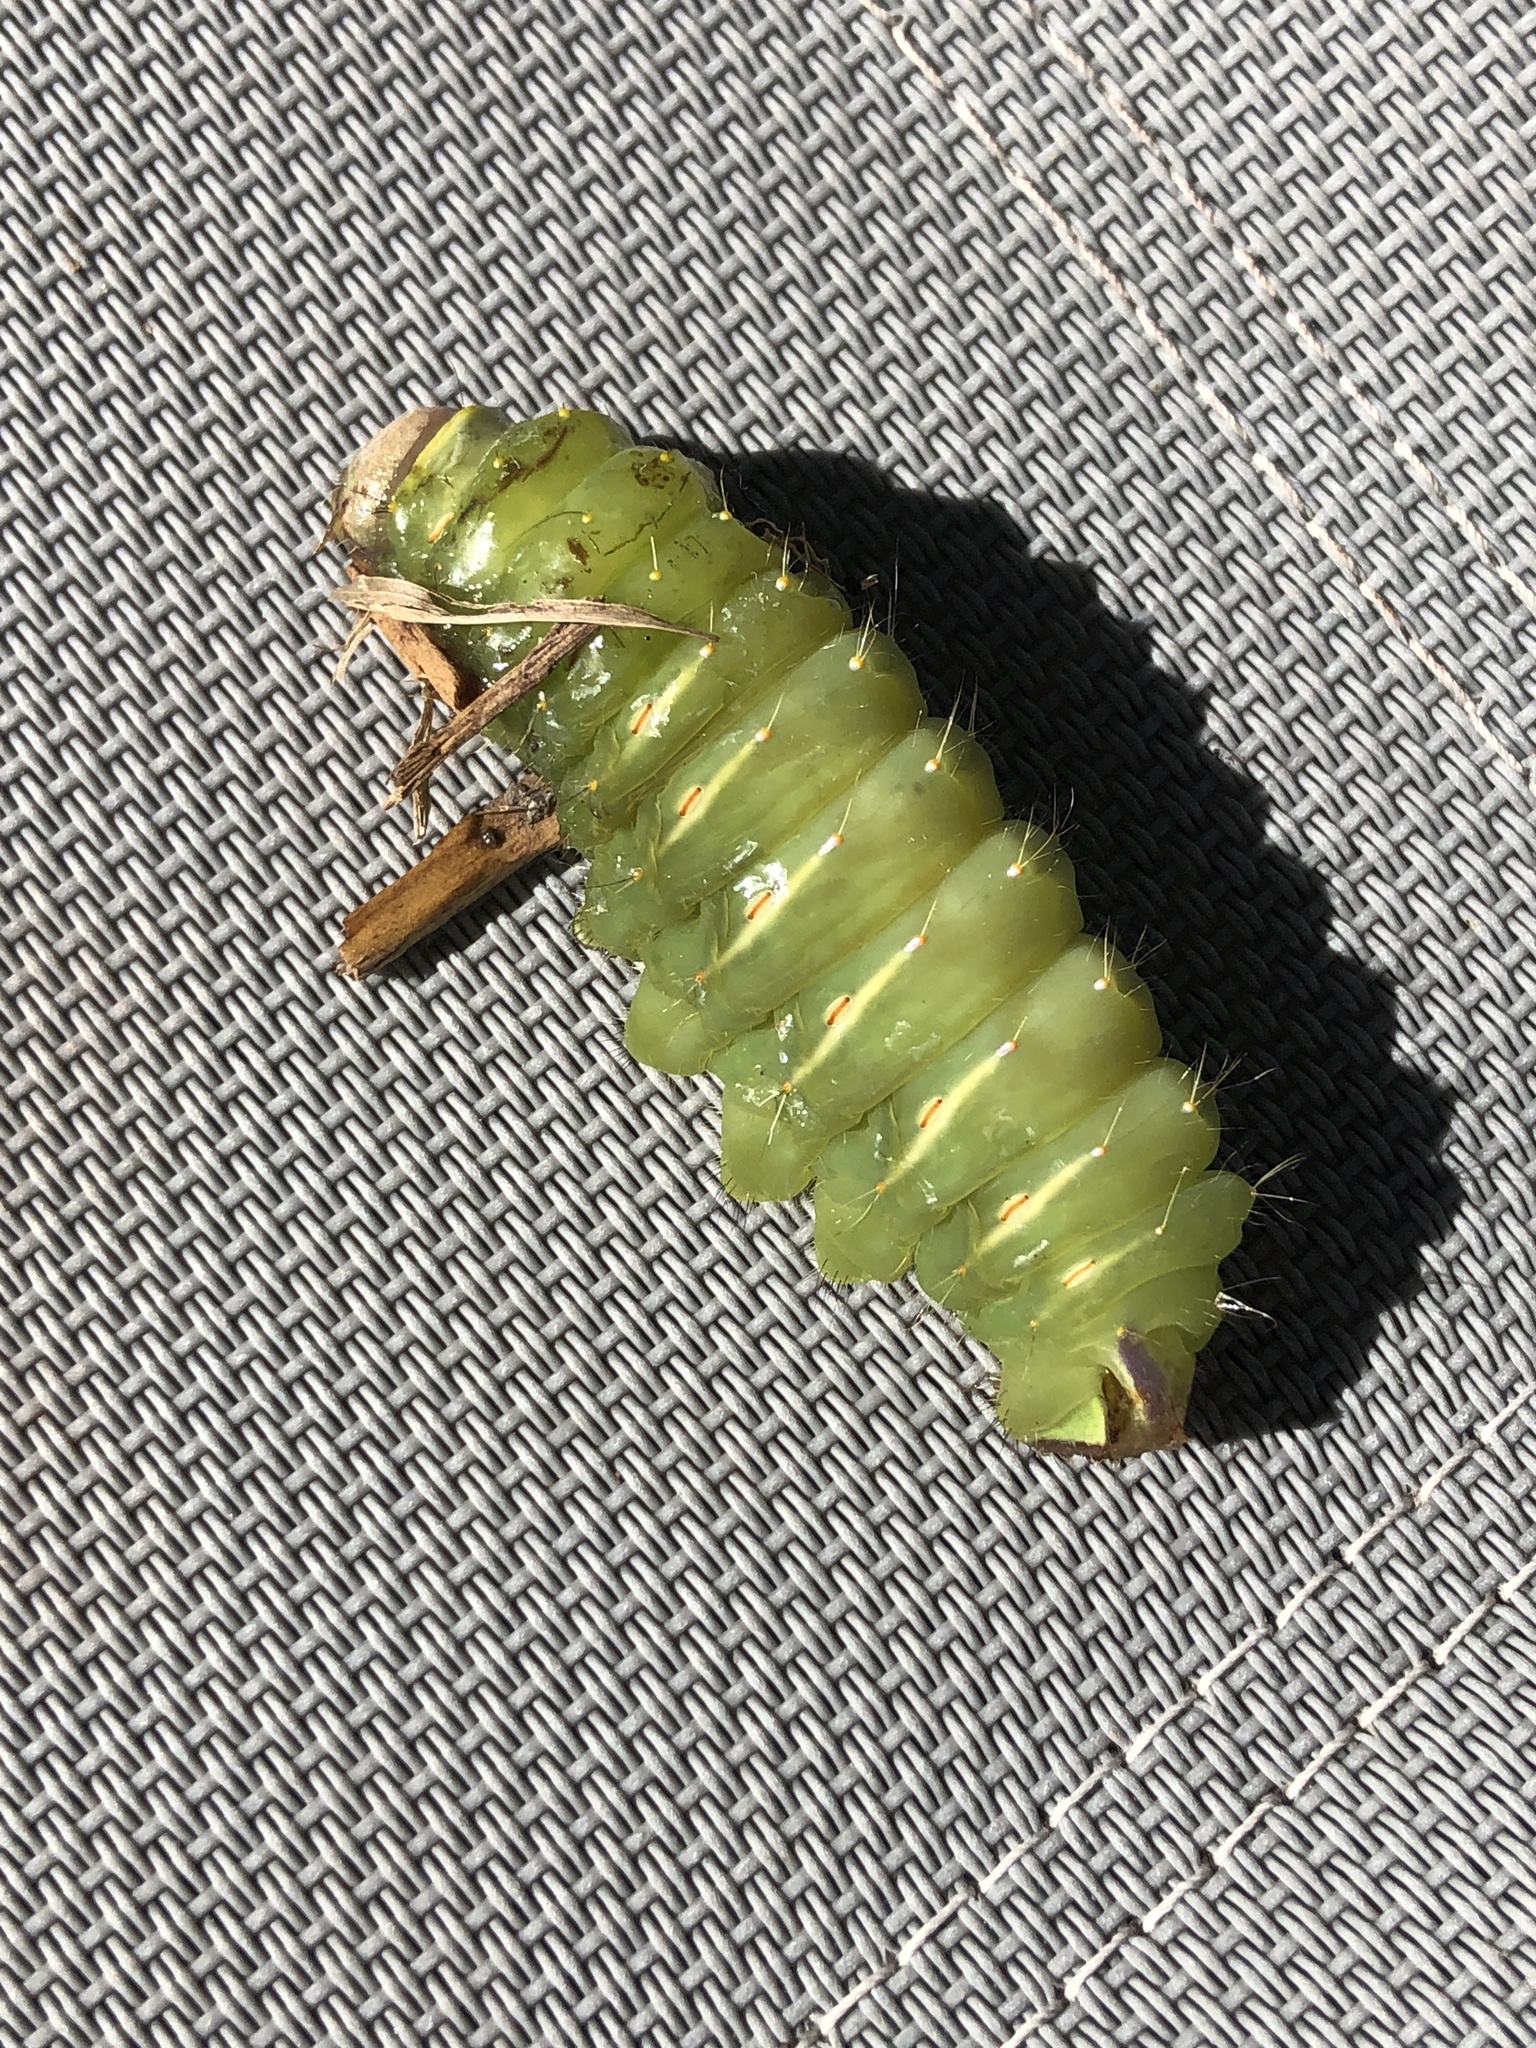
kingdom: Animalia
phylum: Arthropoda
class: Insecta
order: Lepidoptera
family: Saturniidae
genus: Antheraea
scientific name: Antheraea polyphemus
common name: Polyphemus moth
